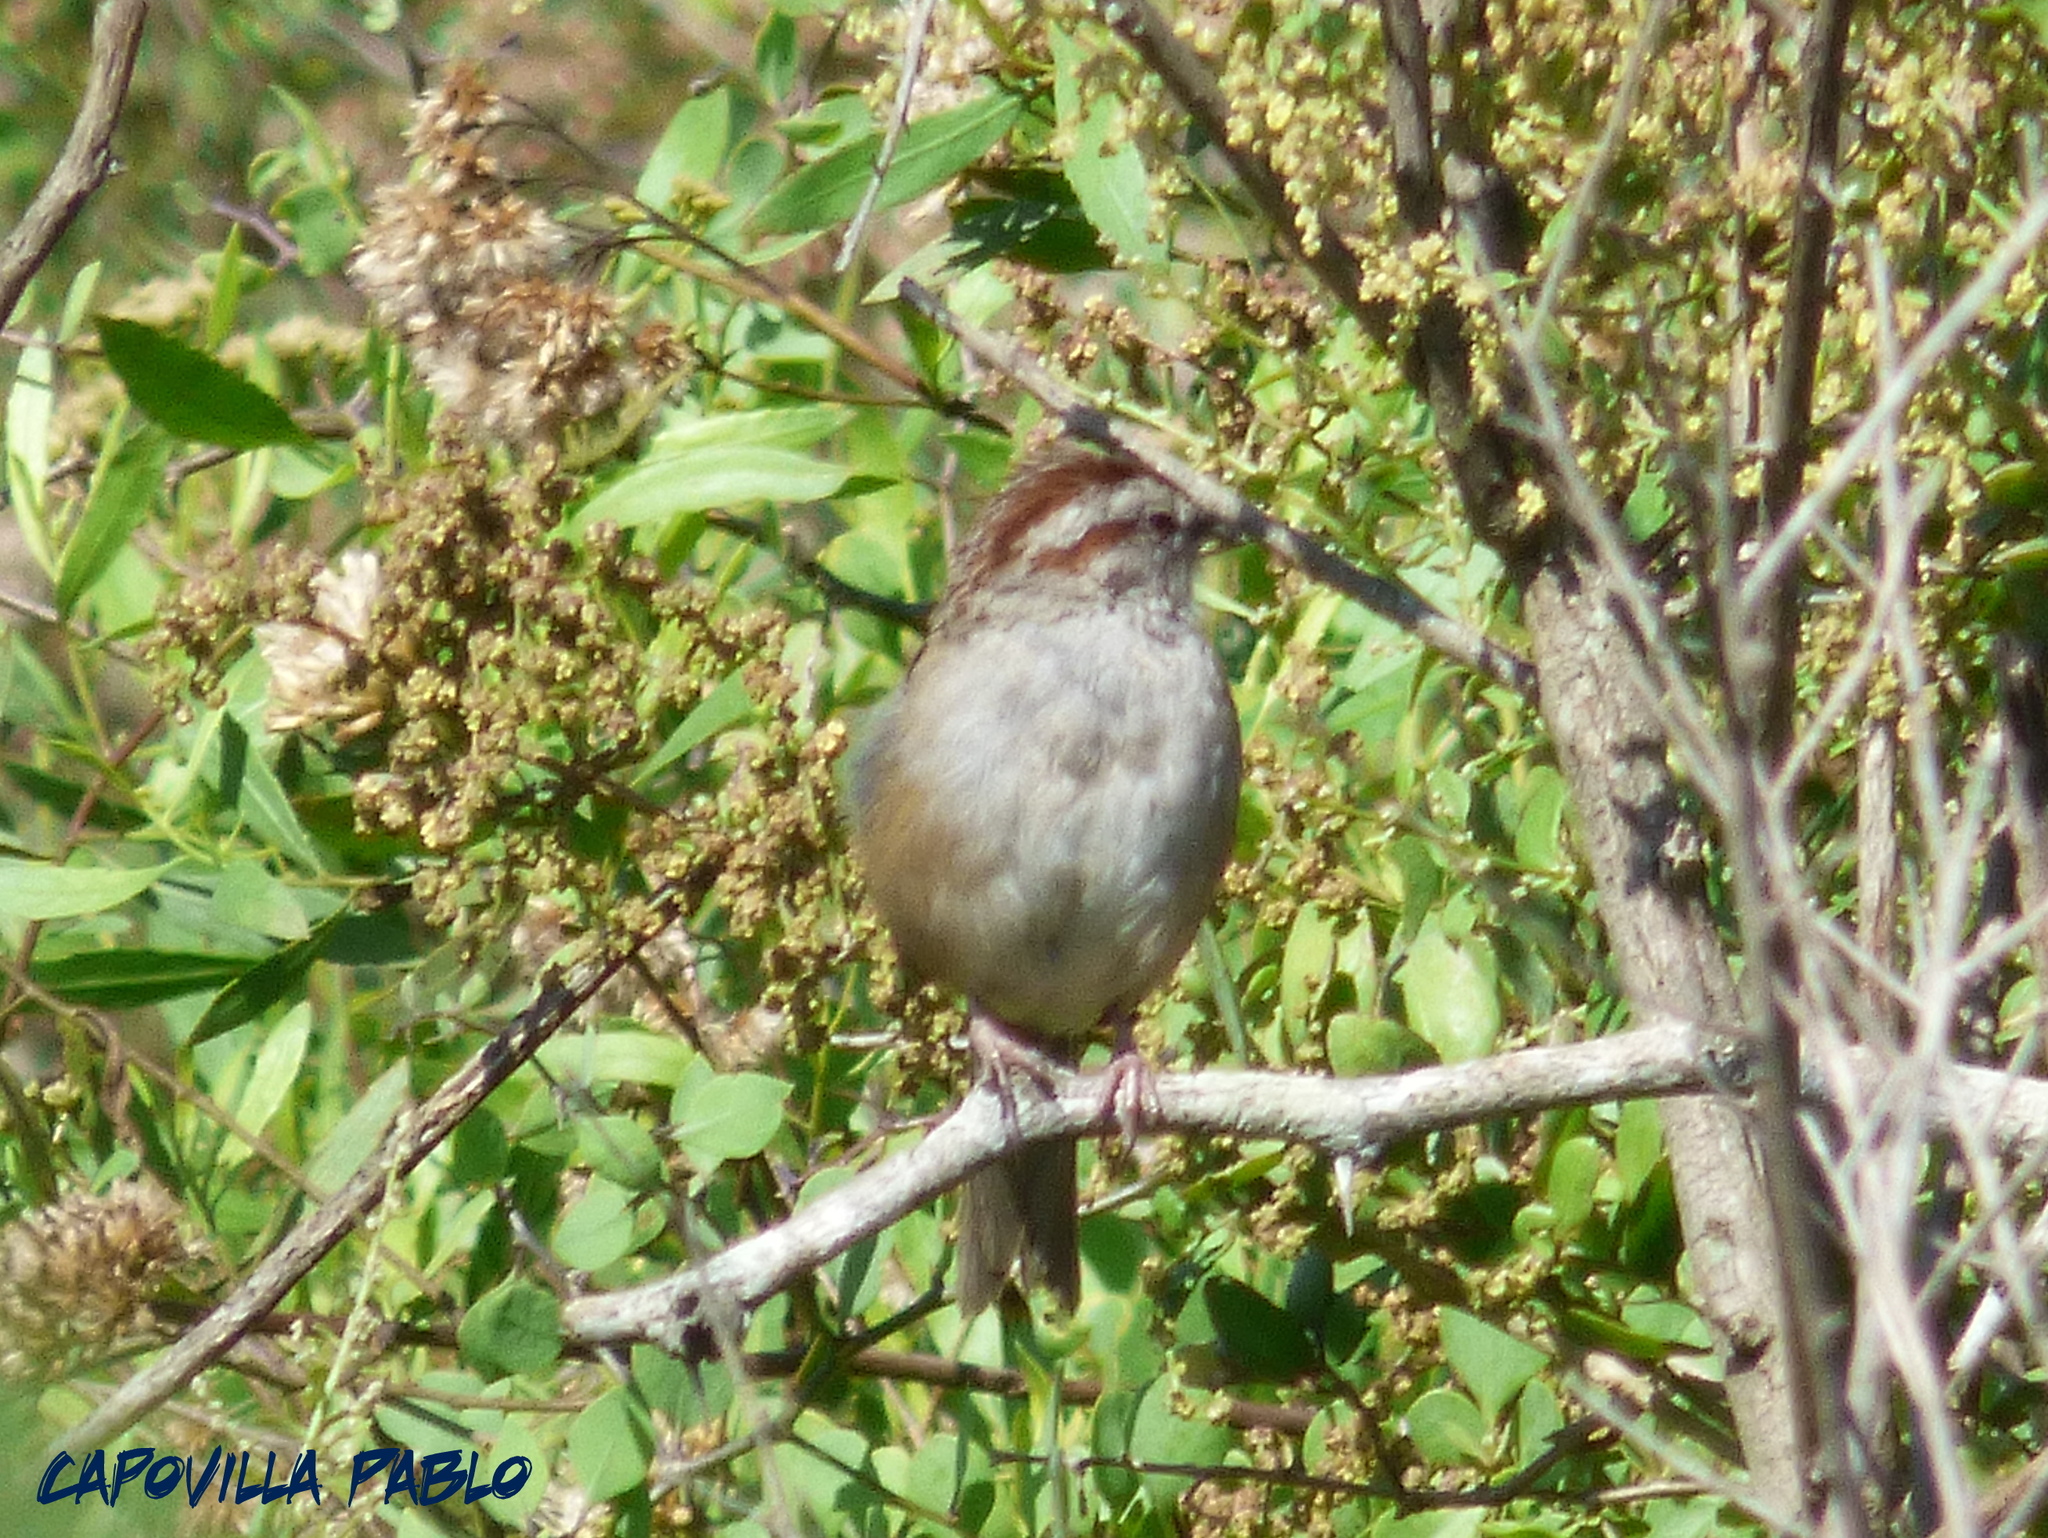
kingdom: Animalia
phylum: Chordata
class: Aves
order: Passeriformes
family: Passerellidae
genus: Rhynchospiza
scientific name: Rhynchospiza strigiceps
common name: Stripe-capped sparrow
